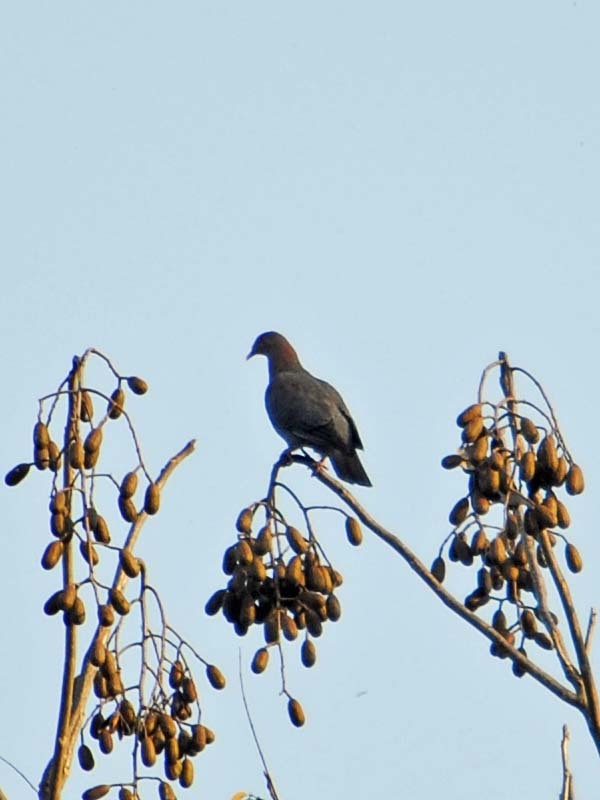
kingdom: Animalia
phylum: Chordata
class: Aves
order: Columbiformes
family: Columbidae
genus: Patagioenas
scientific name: Patagioenas flavirostris
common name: Red-billed pigeon
